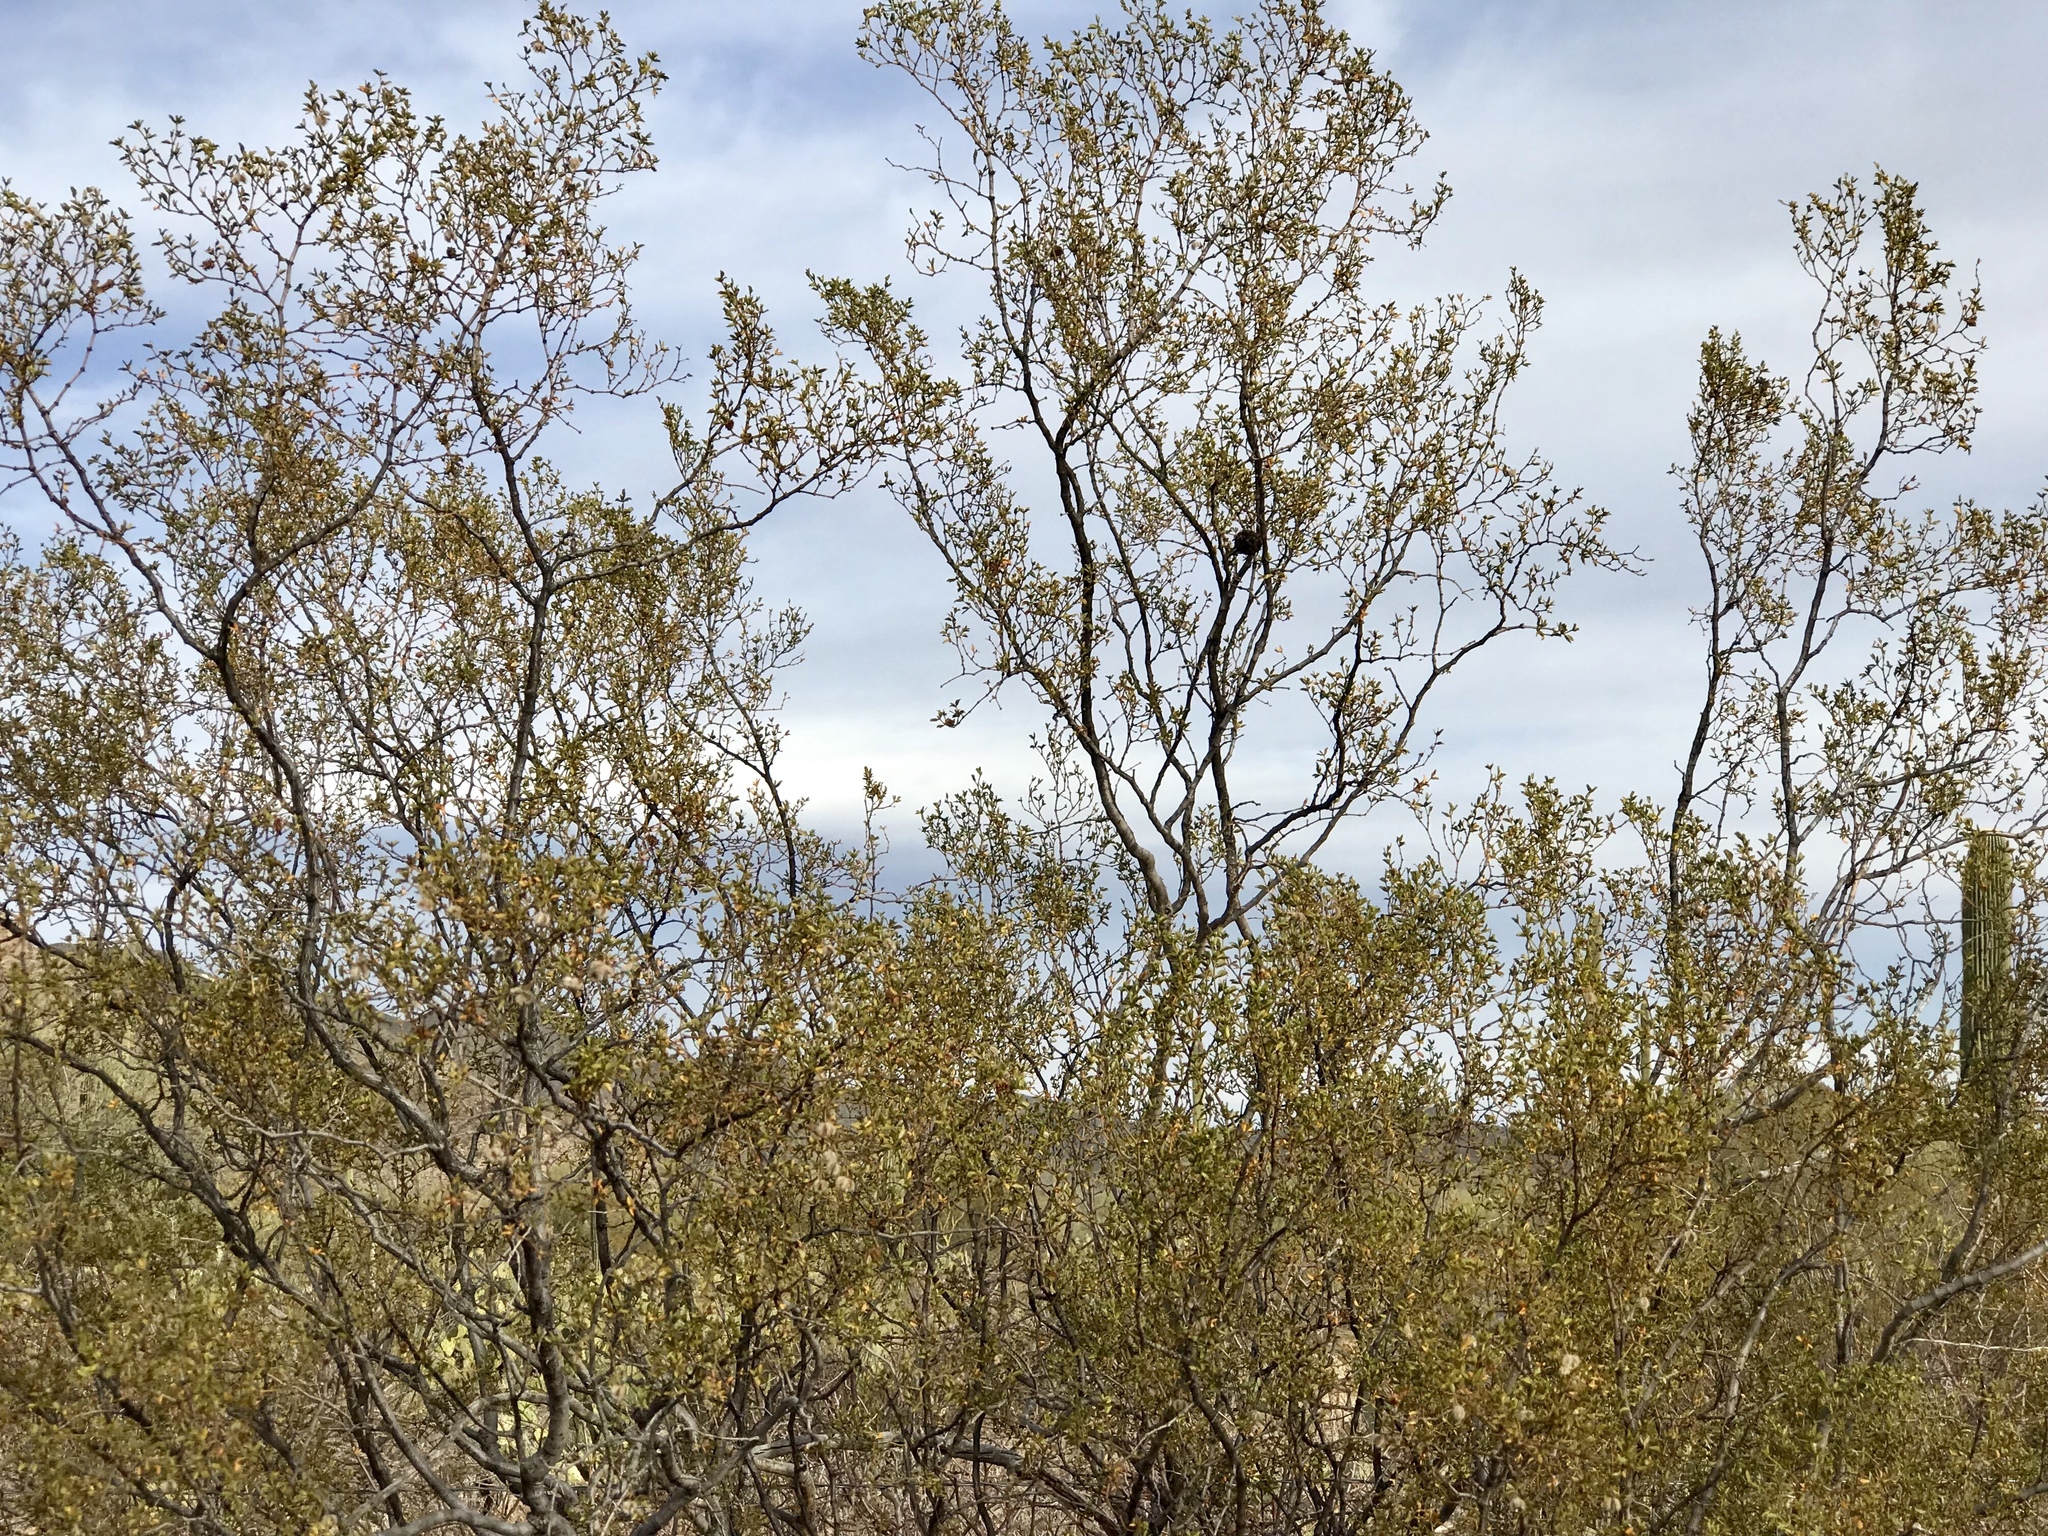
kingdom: Plantae
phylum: Tracheophyta
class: Magnoliopsida
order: Zygophyllales
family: Zygophyllaceae
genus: Larrea
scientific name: Larrea tridentata
